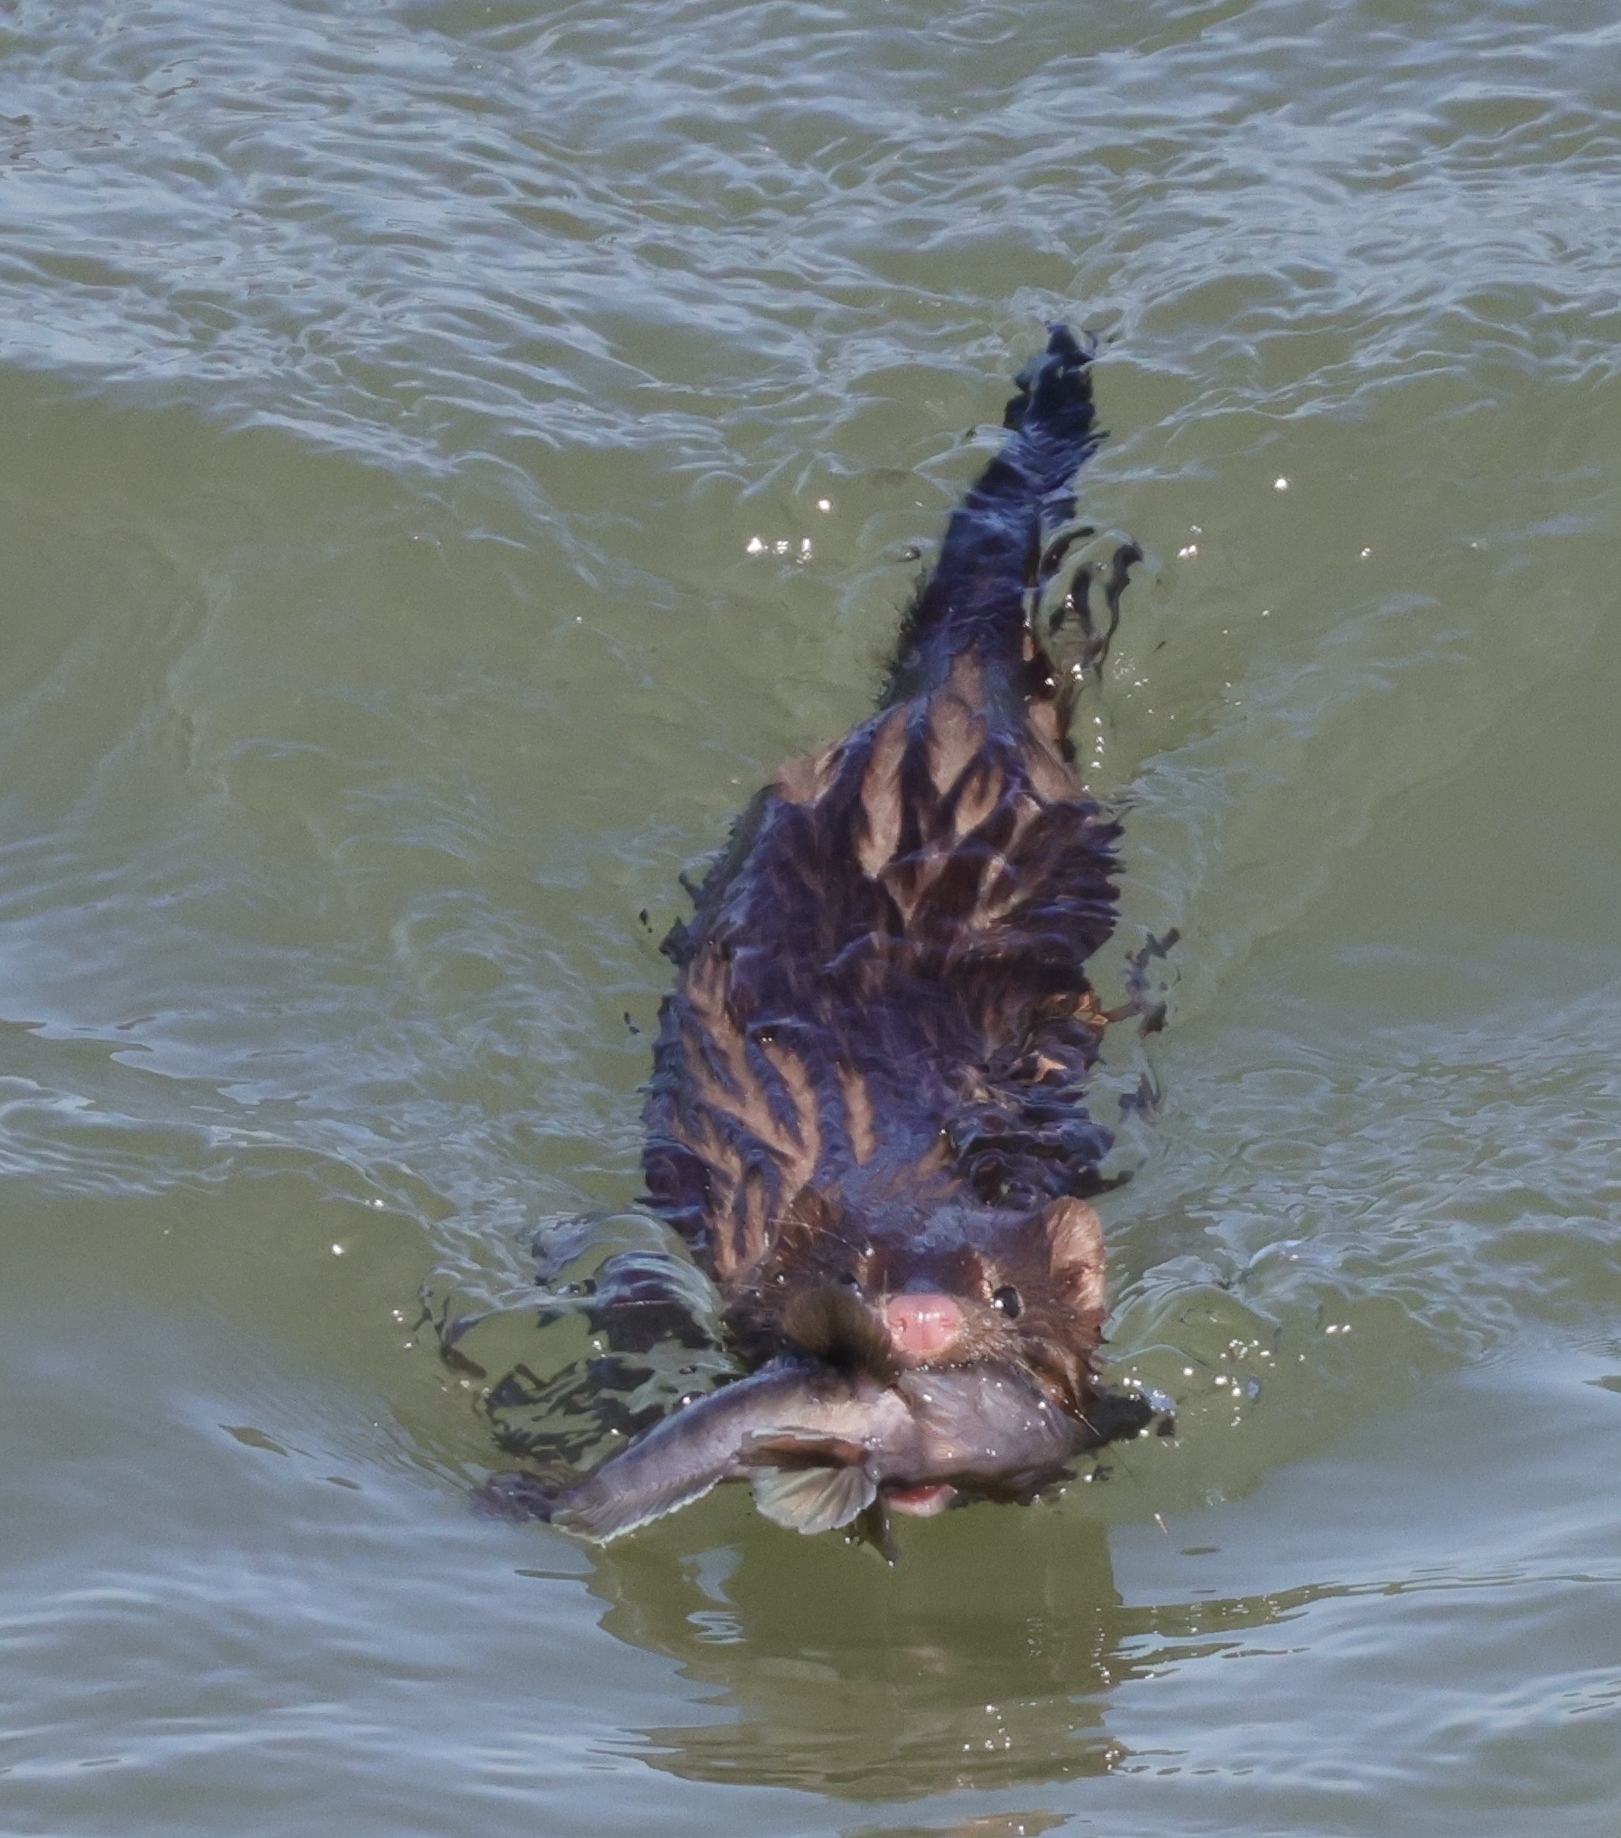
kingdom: Animalia
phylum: Chordata
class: Mammalia
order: Carnivora
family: Mustelidae
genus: Mustela
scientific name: Mustela
